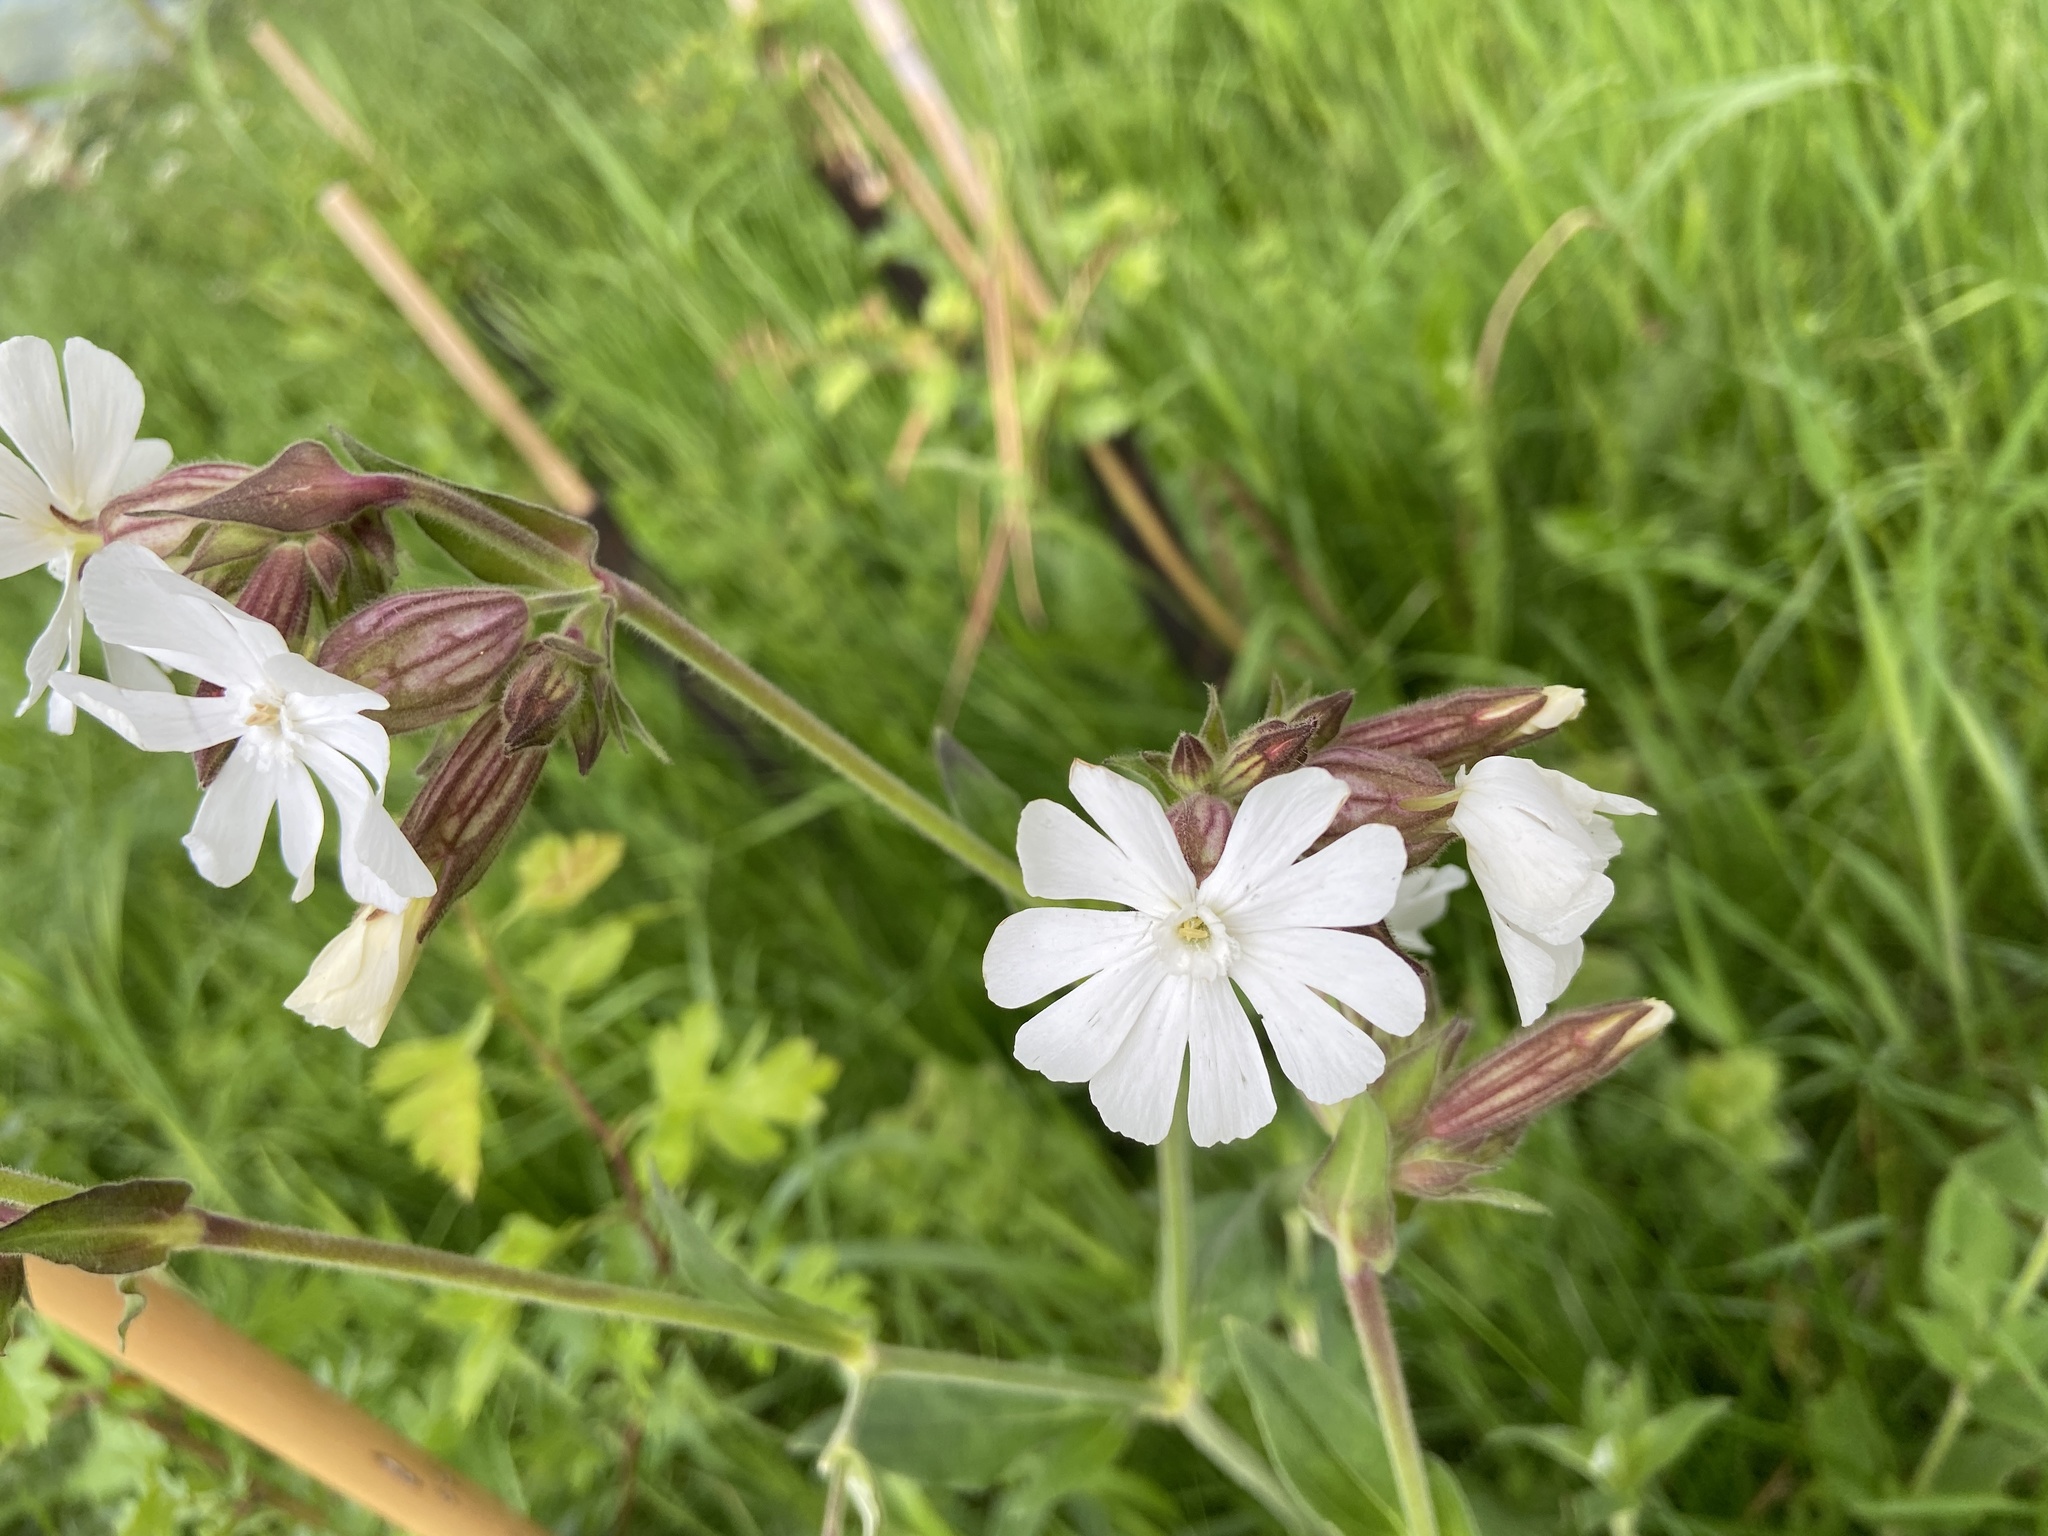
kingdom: Plantae
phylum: Tracheophyta
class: Magnoliopsida
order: Caryophyllales
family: Caryophyllaceae
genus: Silene
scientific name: Silene latifolia
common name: White campion
